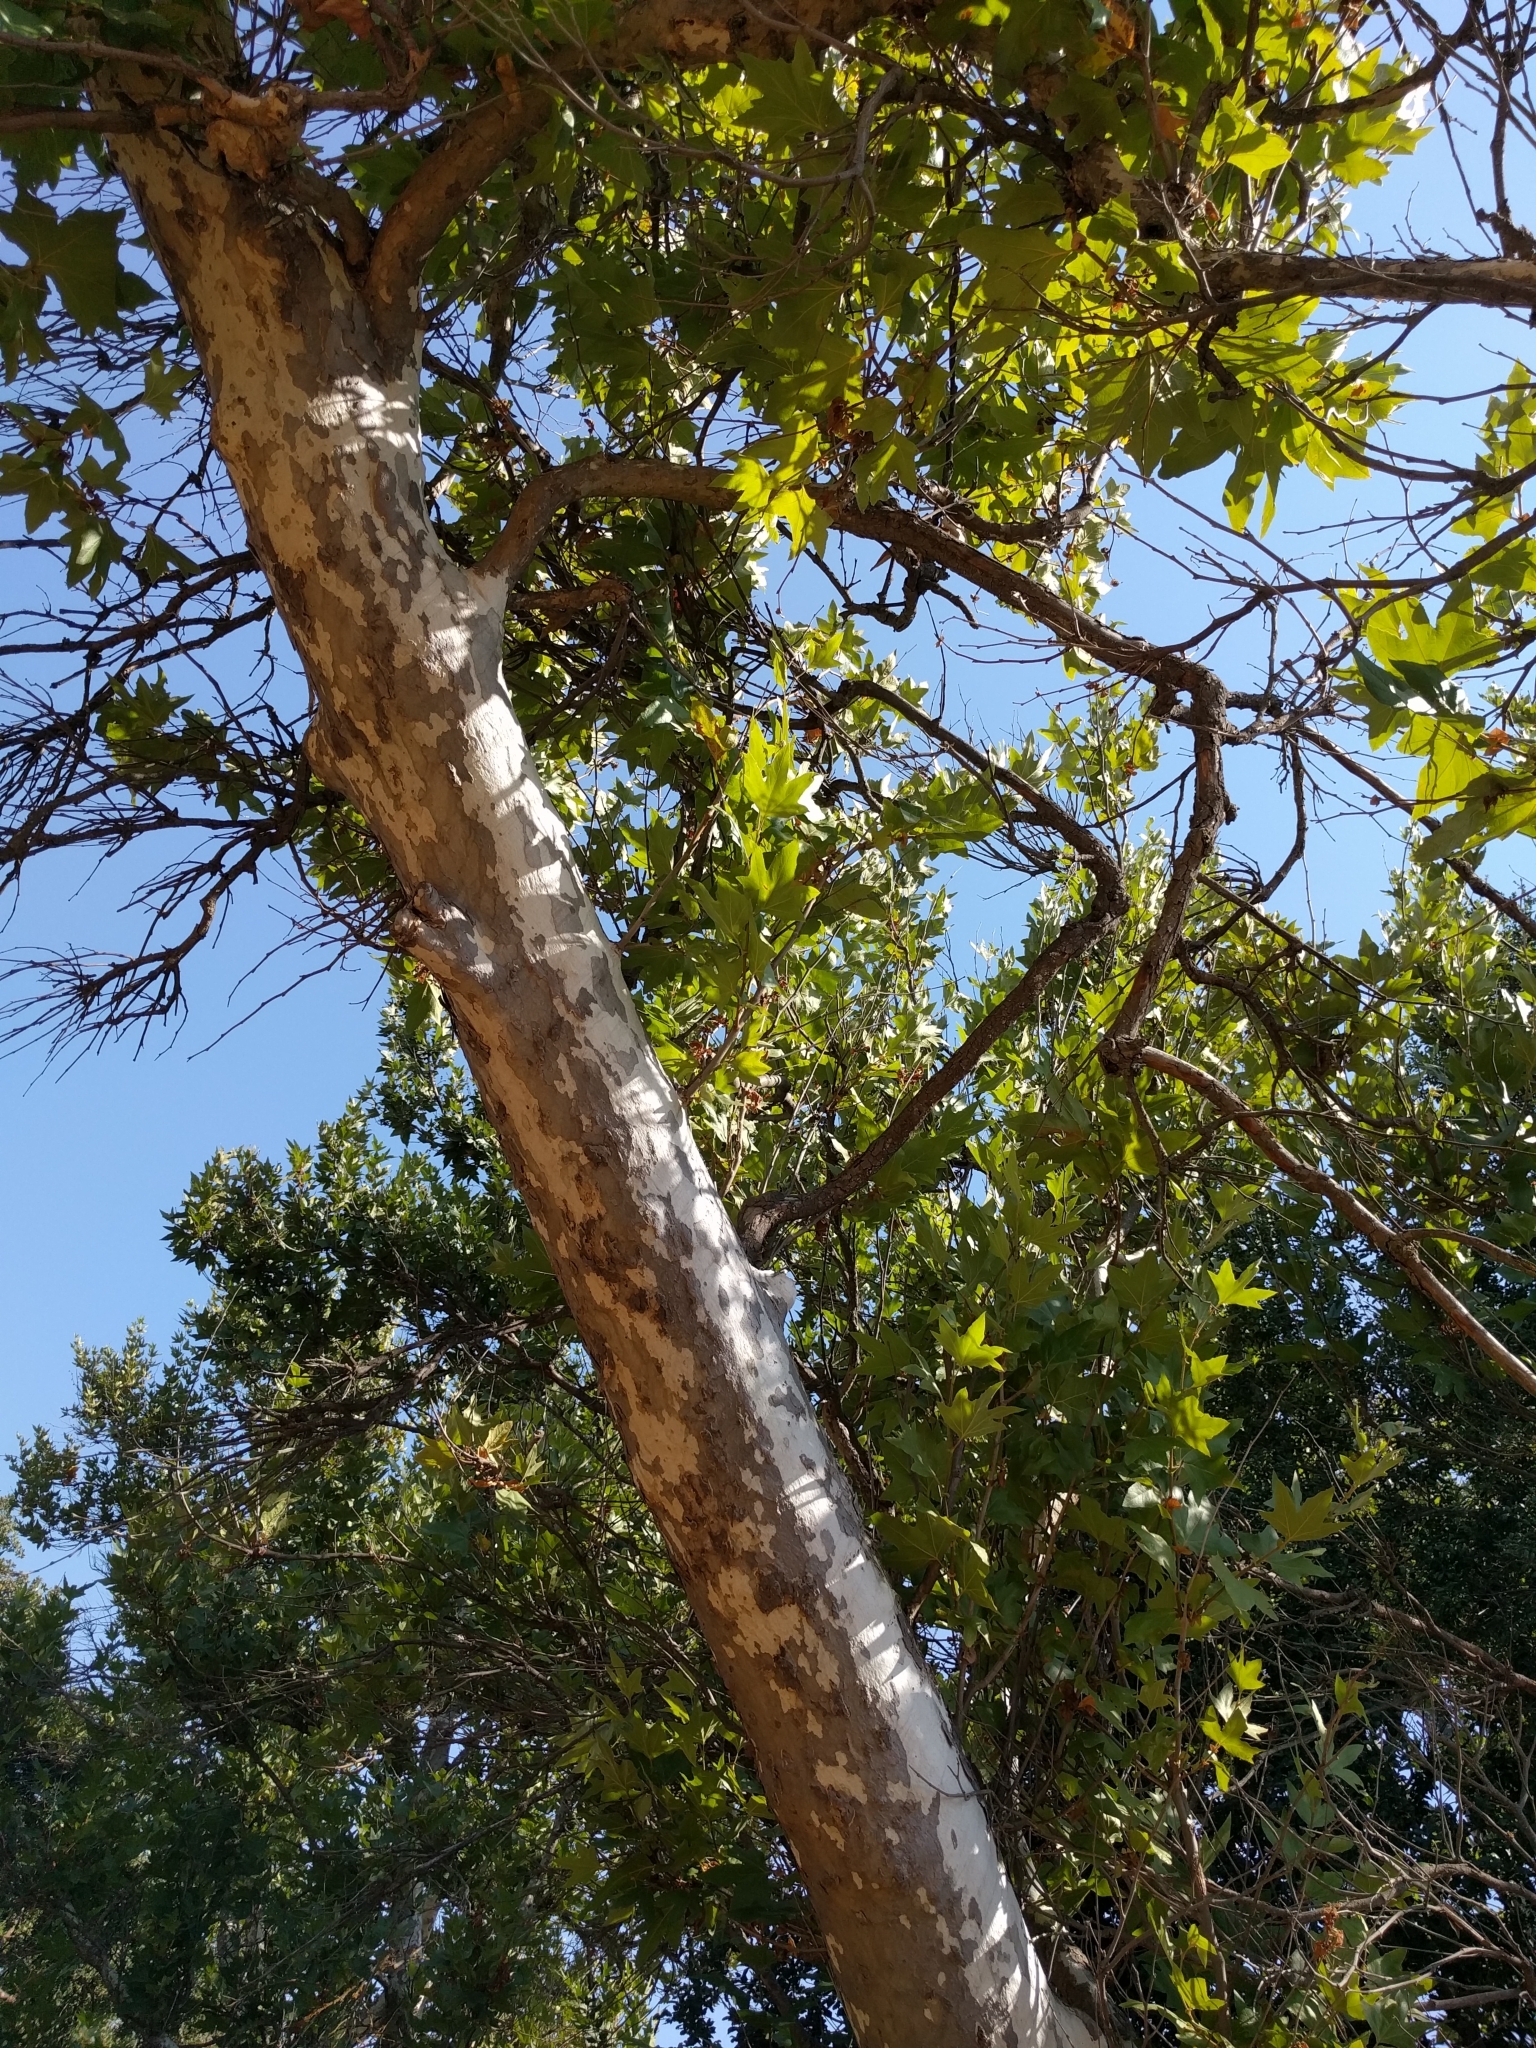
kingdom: Plantae
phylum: Tracheophyta
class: Magnoliopsida
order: Proteales
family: Platanaceae
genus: Platanus
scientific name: Platanus racemosa
